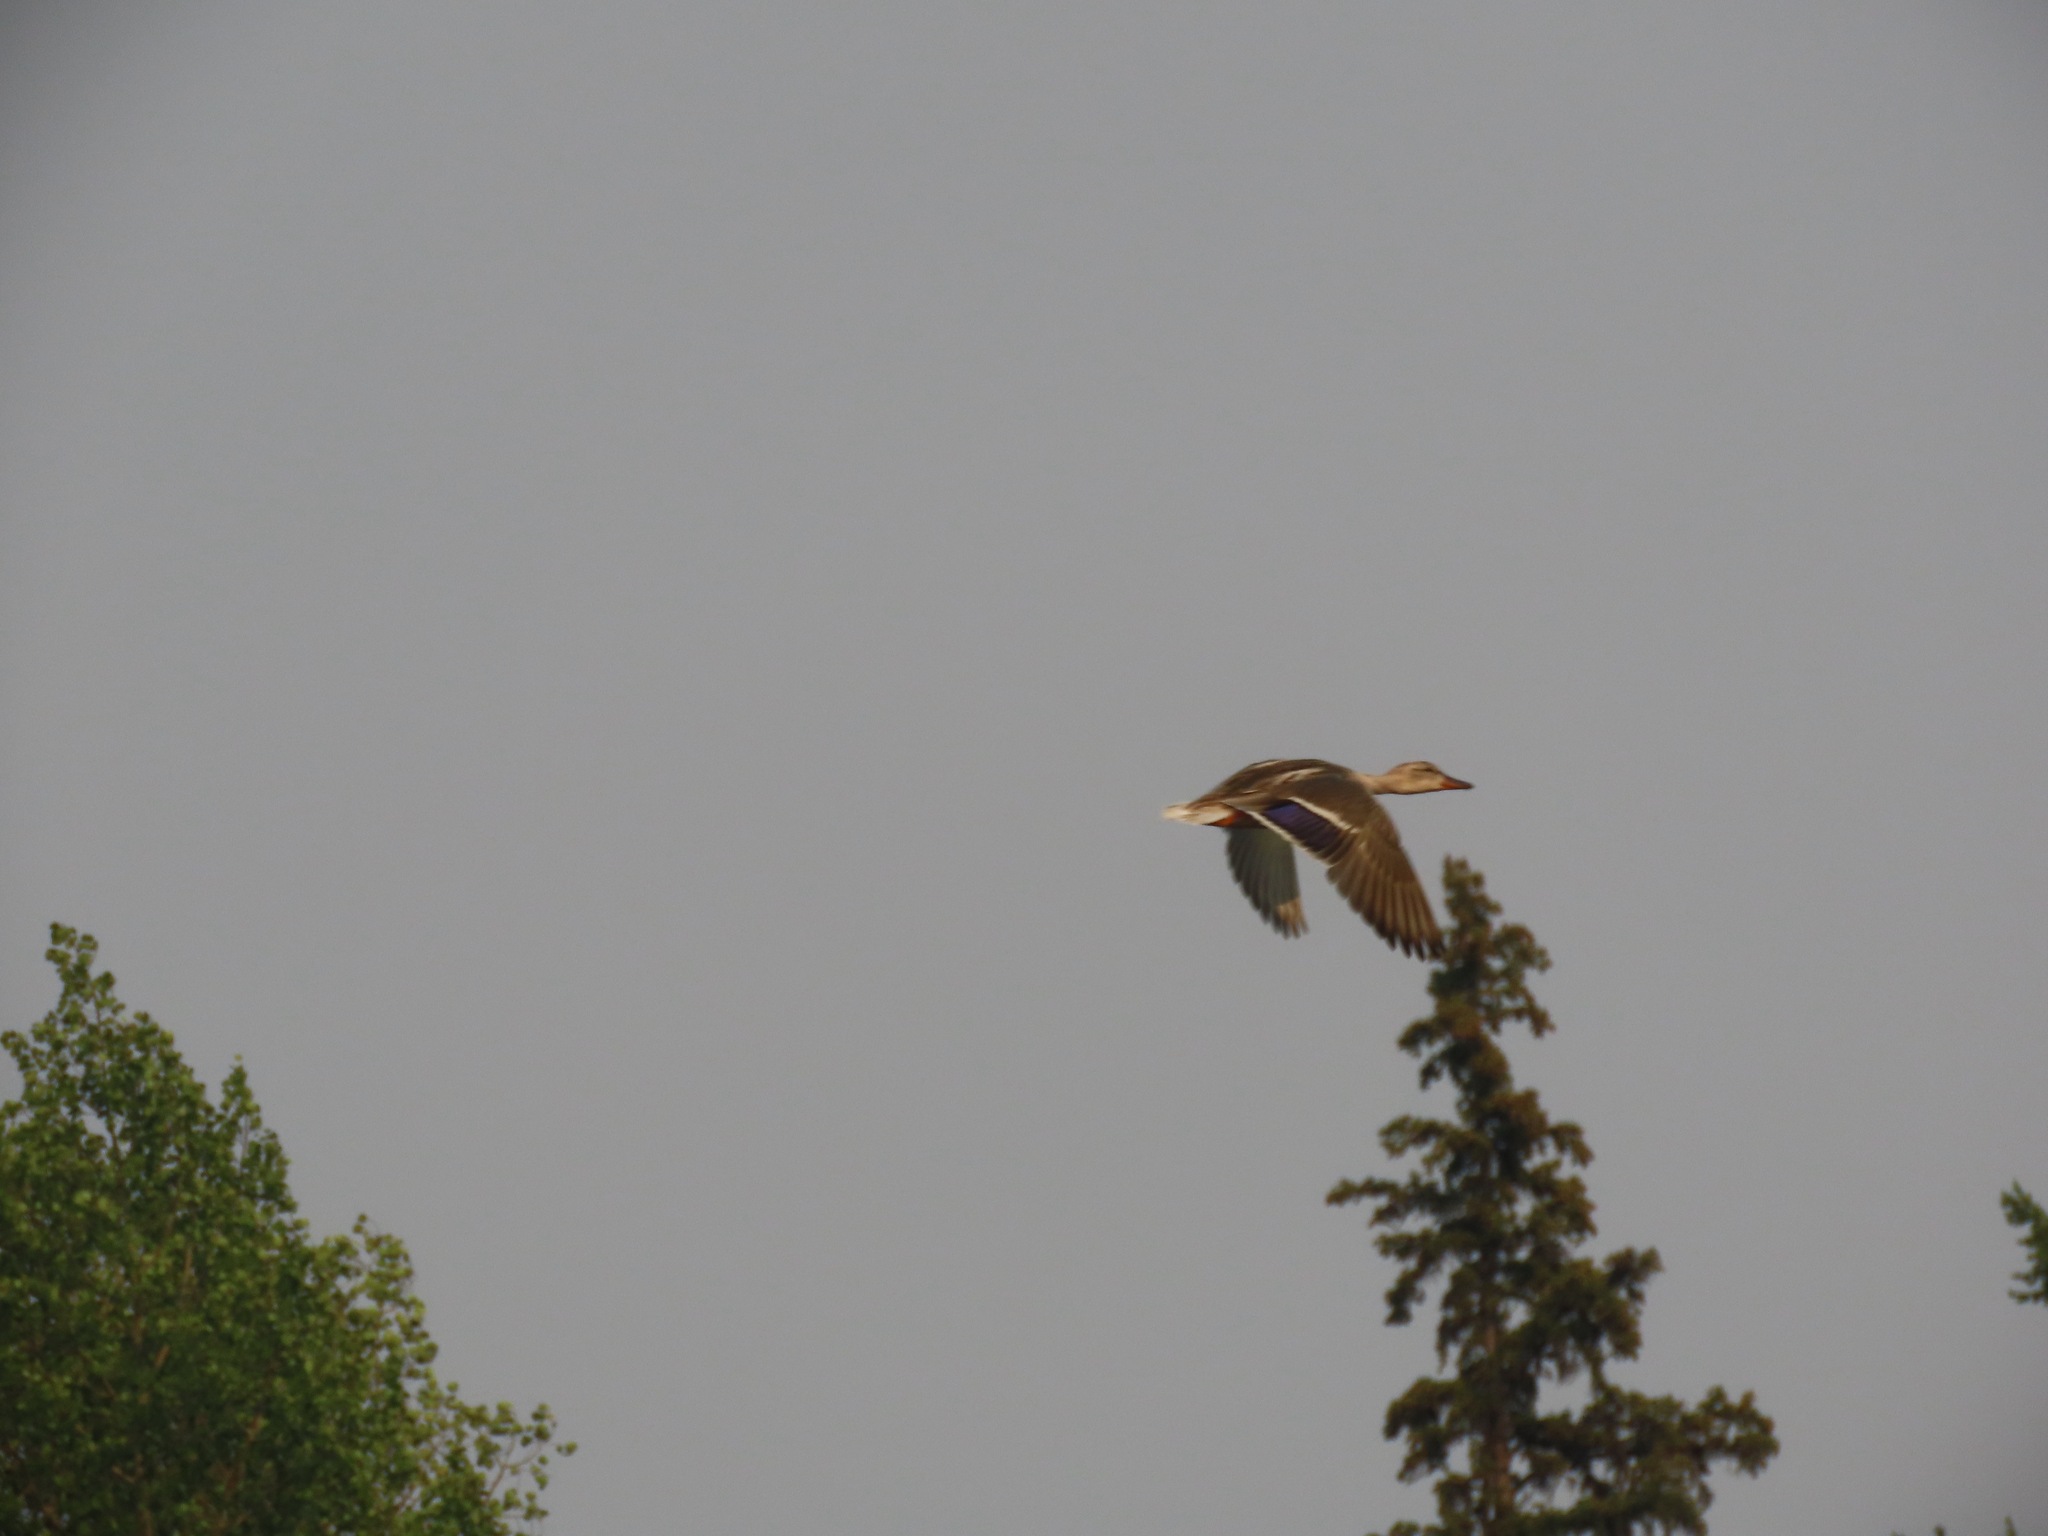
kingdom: Animalia
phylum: Chordata
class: Aves
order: Anseriformes
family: Anatidae
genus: Anas
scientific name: Anas platyrhynchos
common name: Mallard
